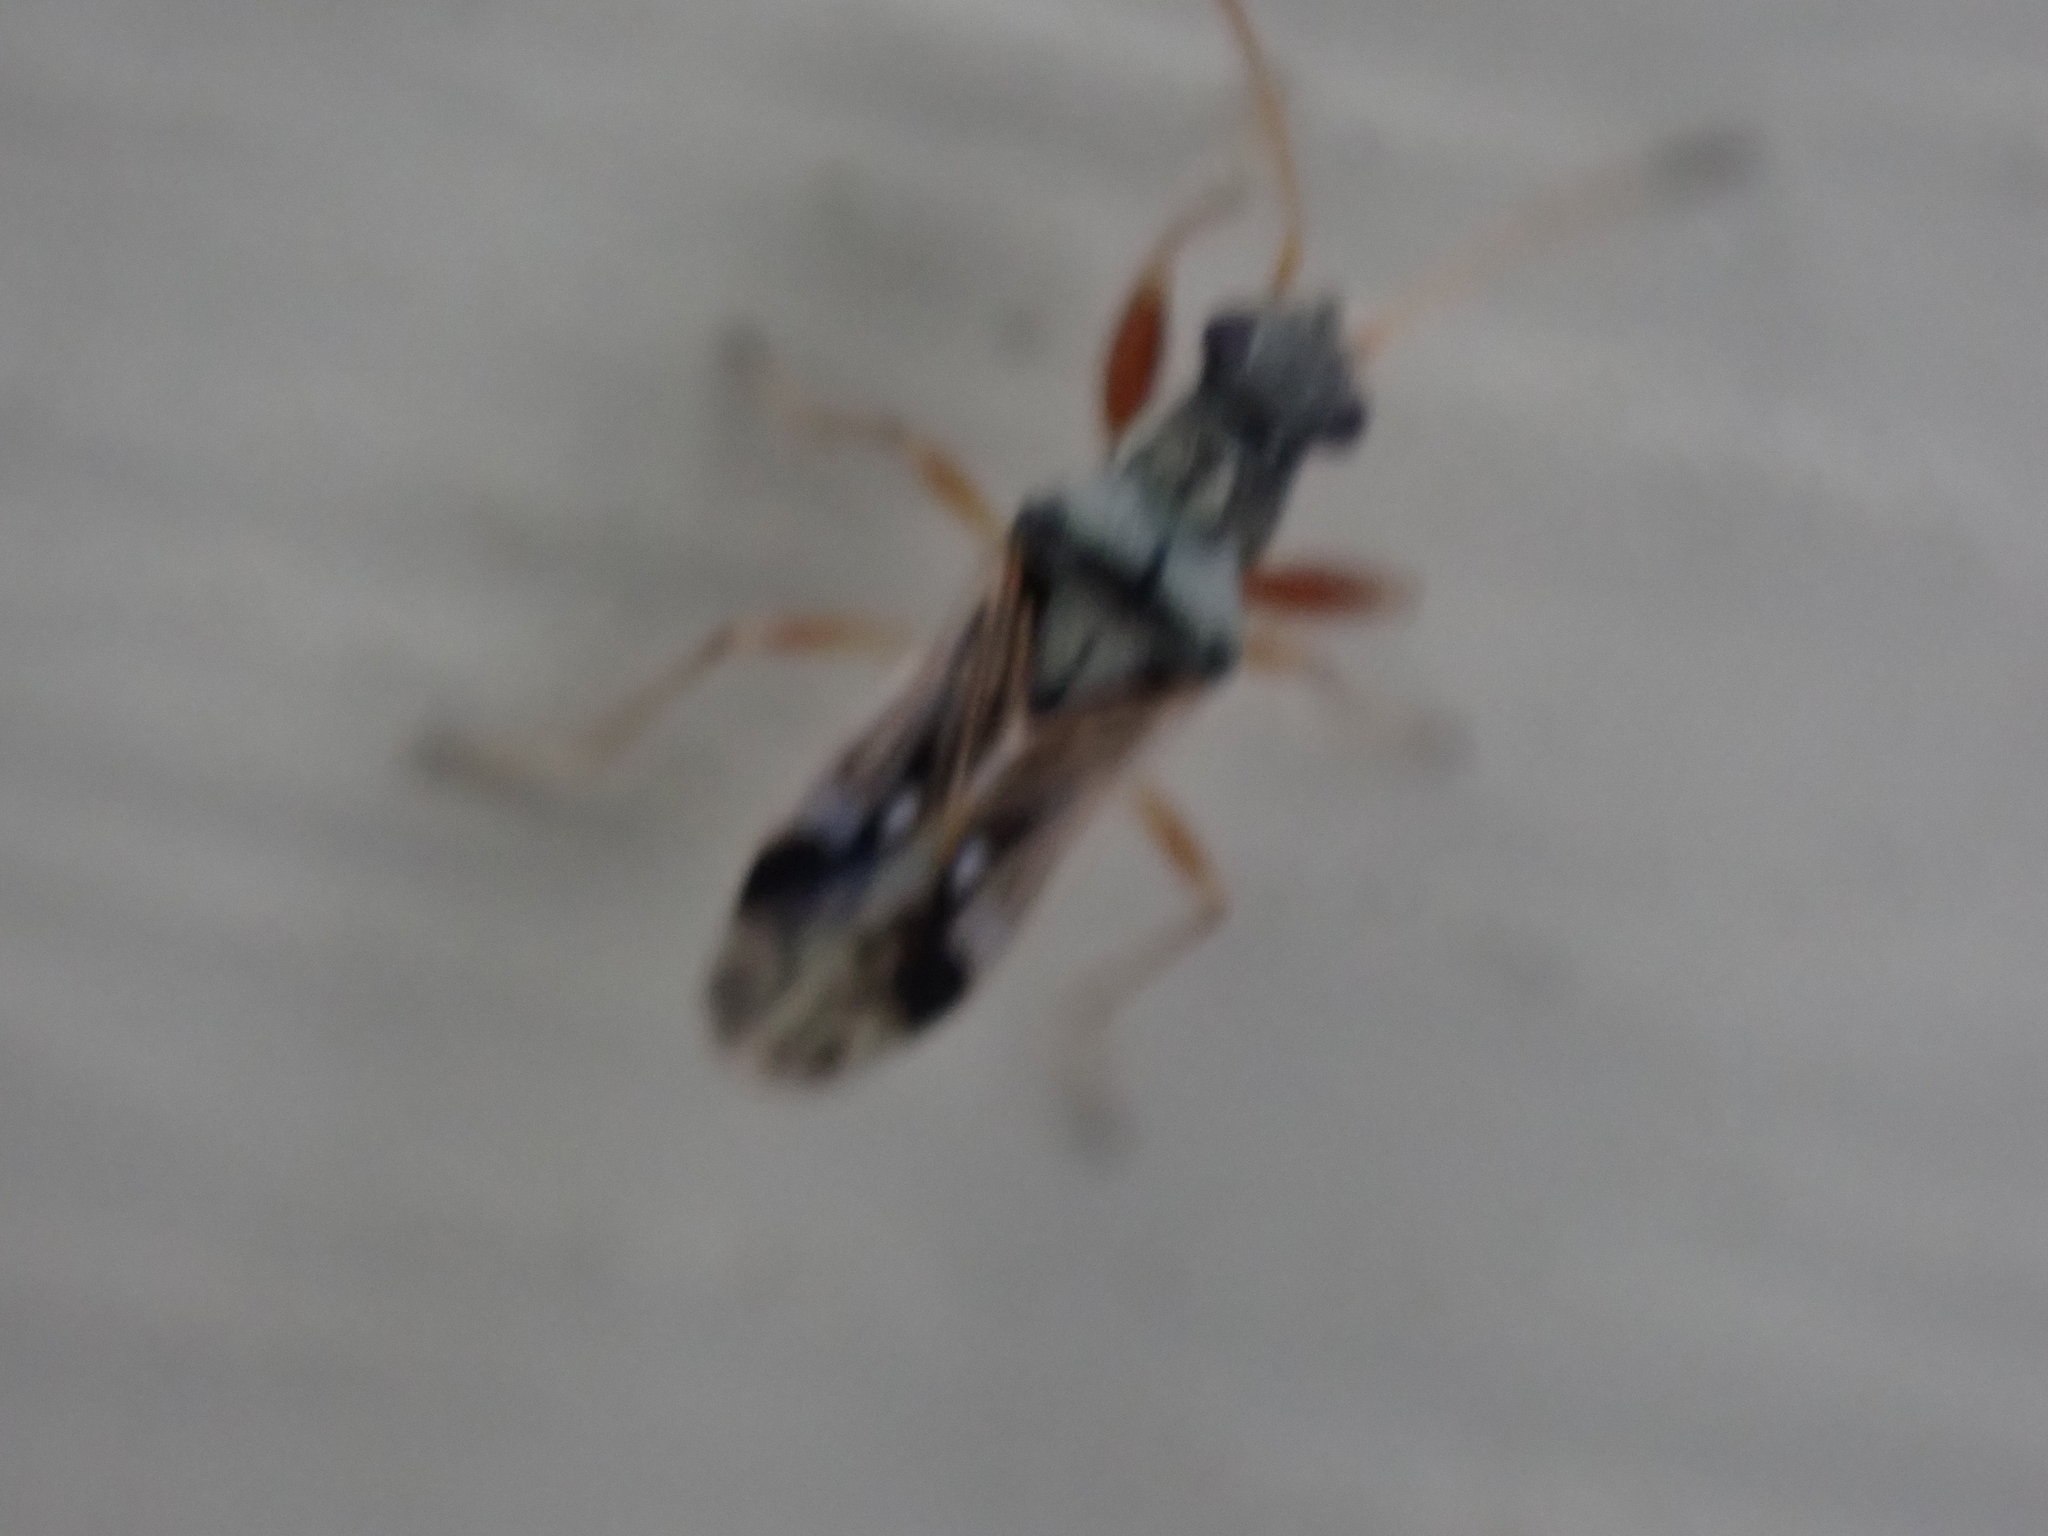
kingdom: Animalia
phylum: Arthropoda
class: Insecta
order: Hemiptera
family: Rhyparochromidae
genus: Pseudopachybrachius
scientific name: Pseudopachybrachius vinctus
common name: Dirt-colored seed bug
